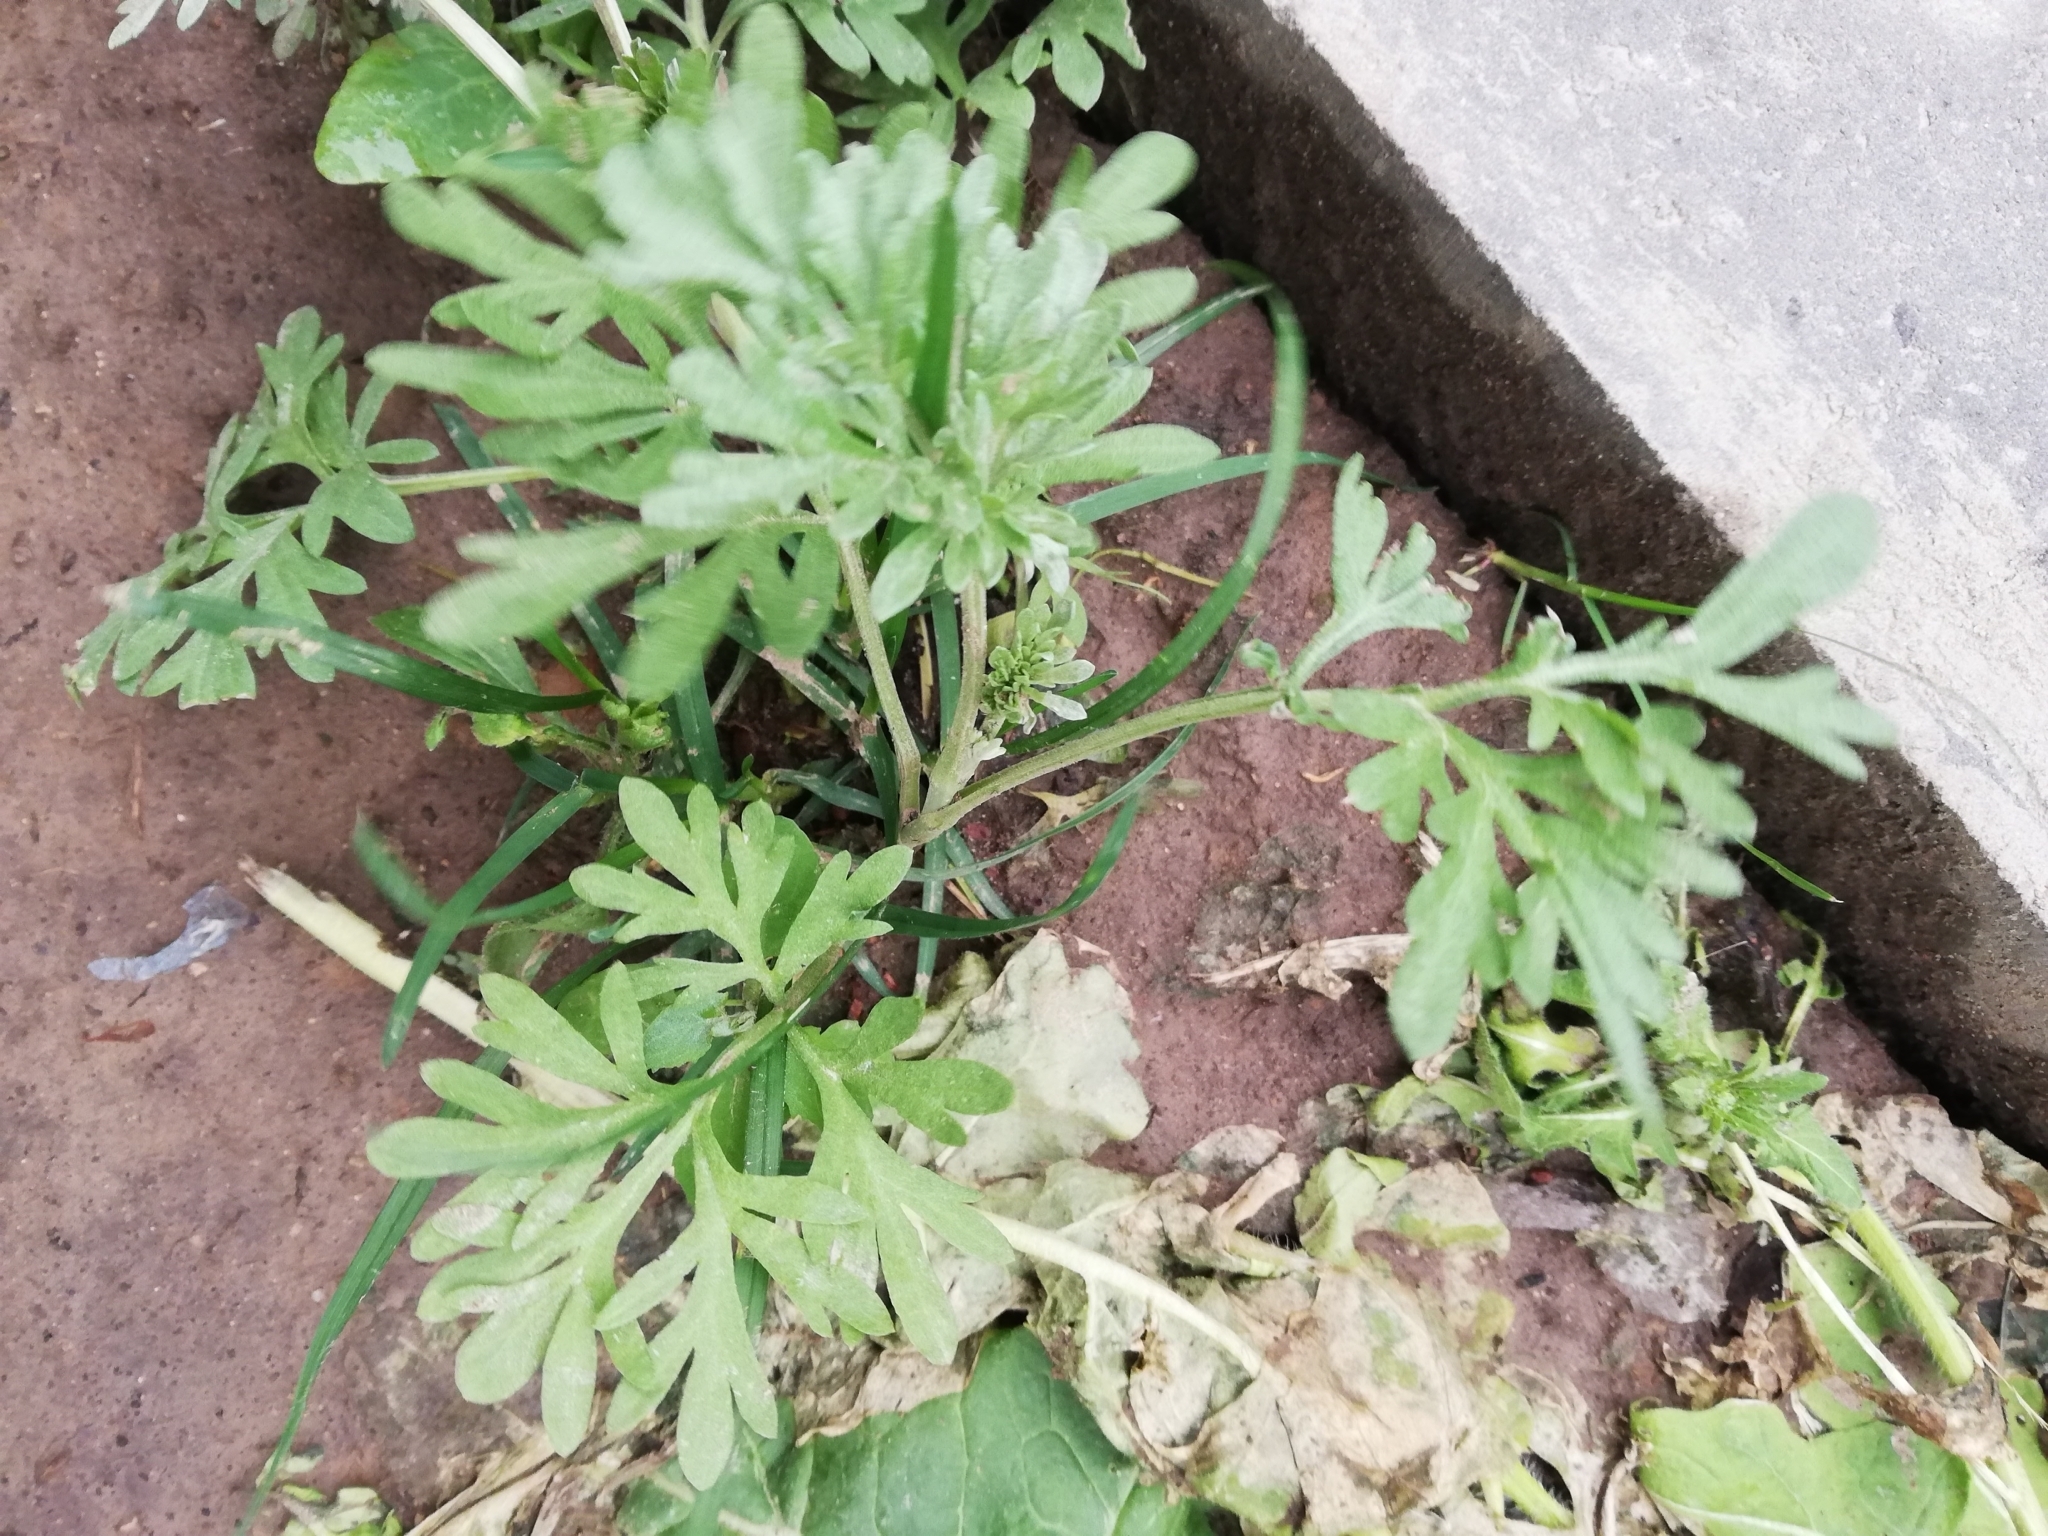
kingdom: Plantae
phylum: Tracheophyta
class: Magnoliopsida
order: Asterales
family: Asteraceae
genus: Artemisia
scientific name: Artemisia absinthium
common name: Wormwood
